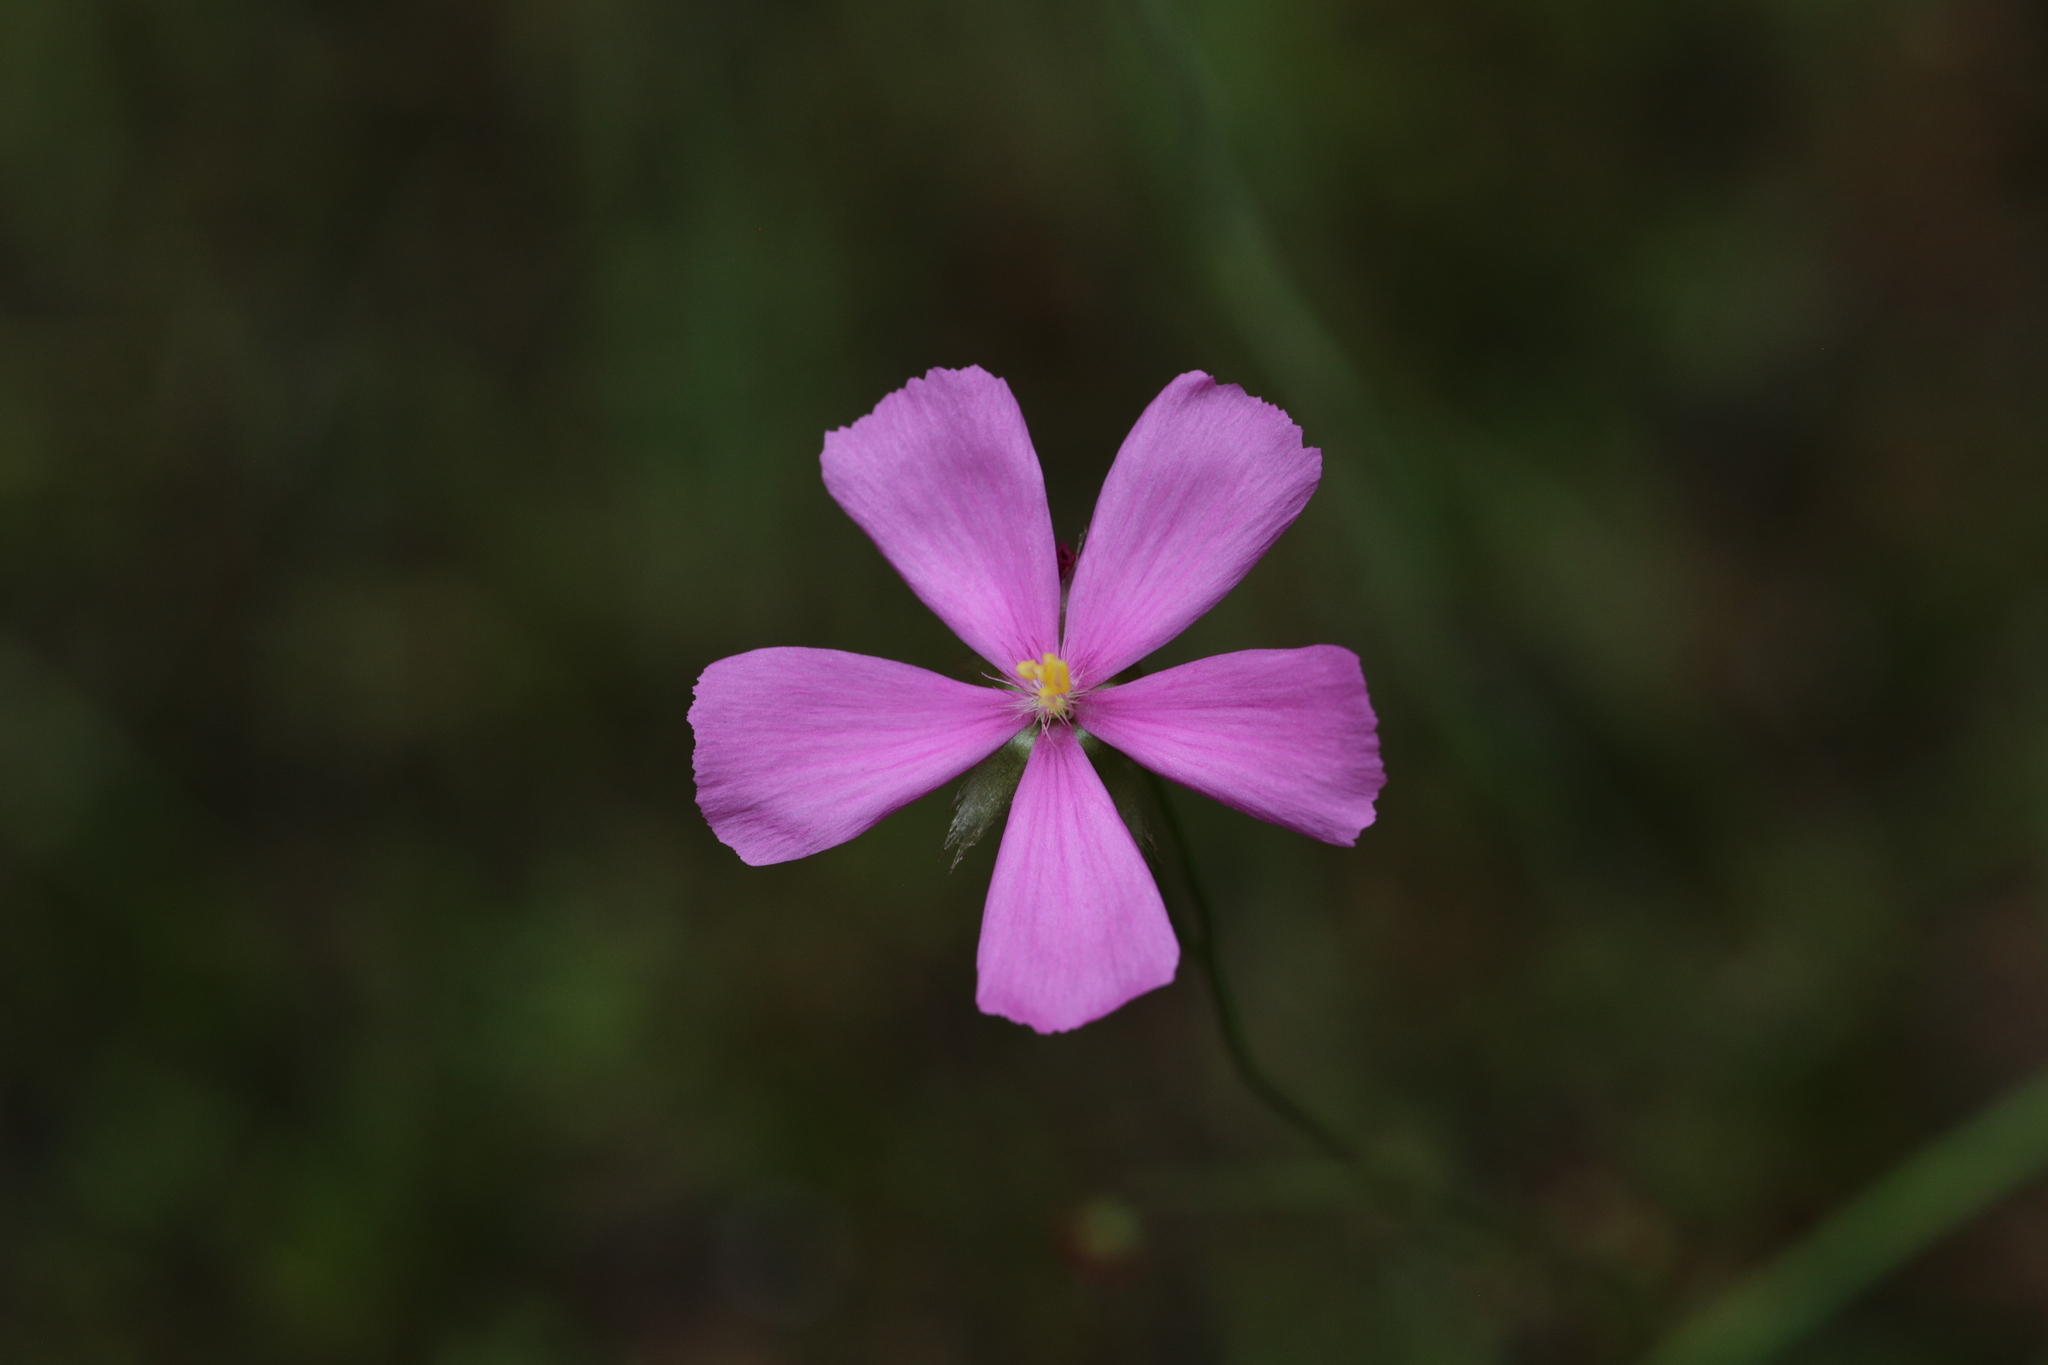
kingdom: Plantae
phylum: Tracheophyta
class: Magnoliopsida
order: Caryophyllales
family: Droseraceae
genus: Drosera
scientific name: Drosera menziesii
